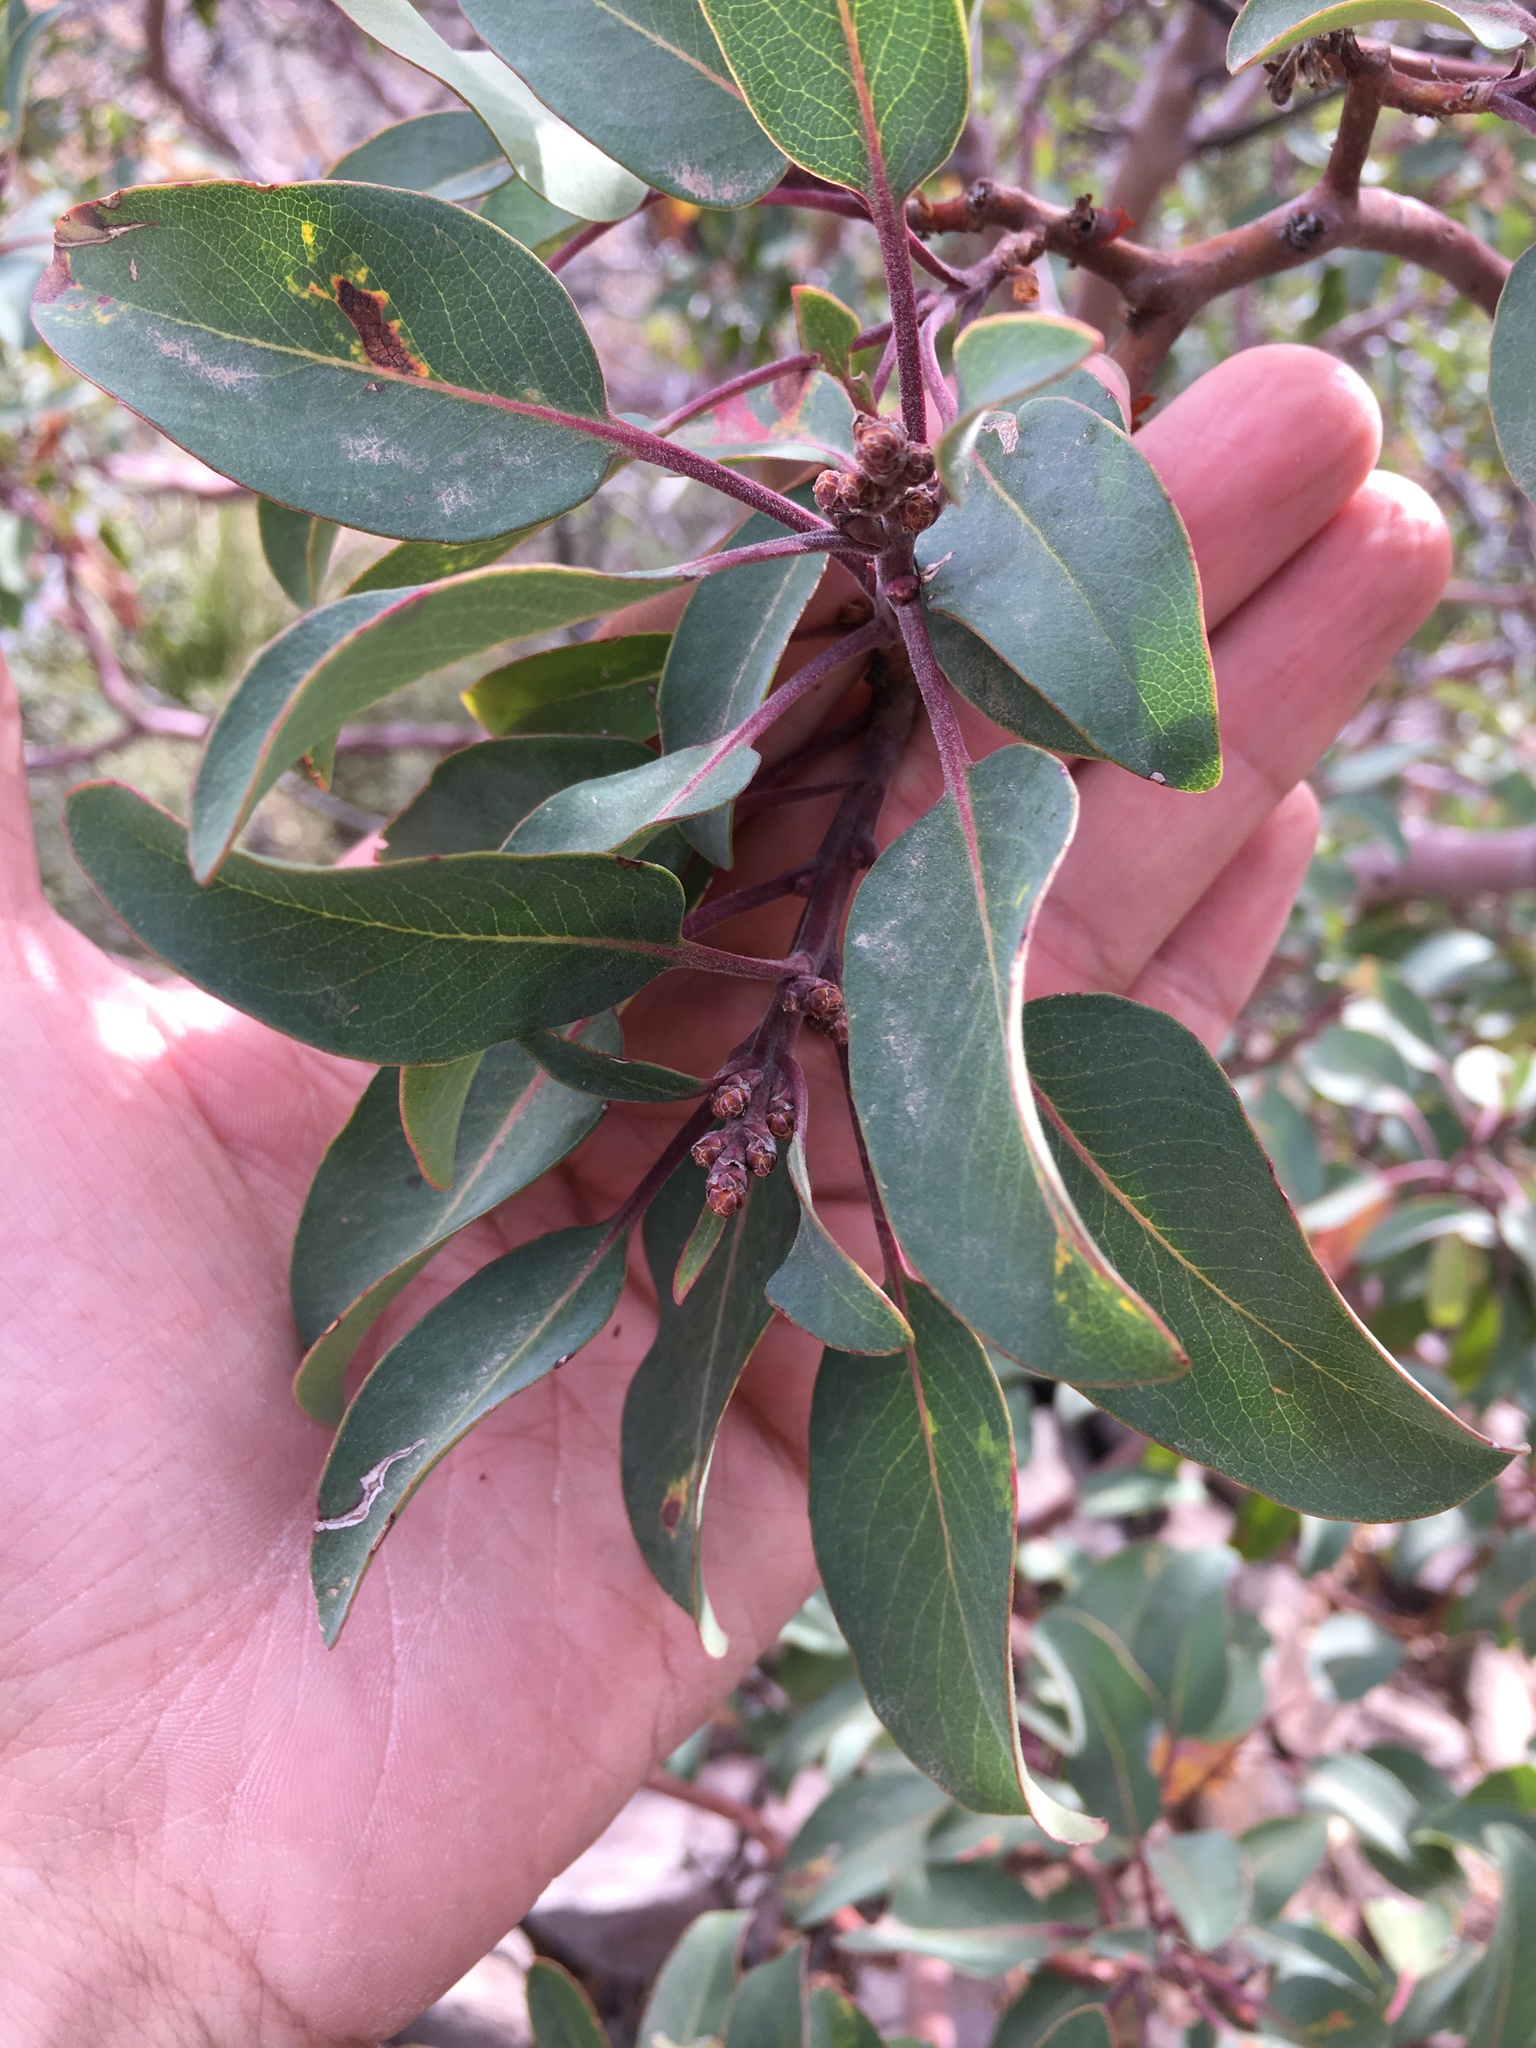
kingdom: Plantae
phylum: Tracheophyta
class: Magnoliopsida
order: Ericales
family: Ericaceae
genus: Arbutus
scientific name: Arbutus xalapensis
